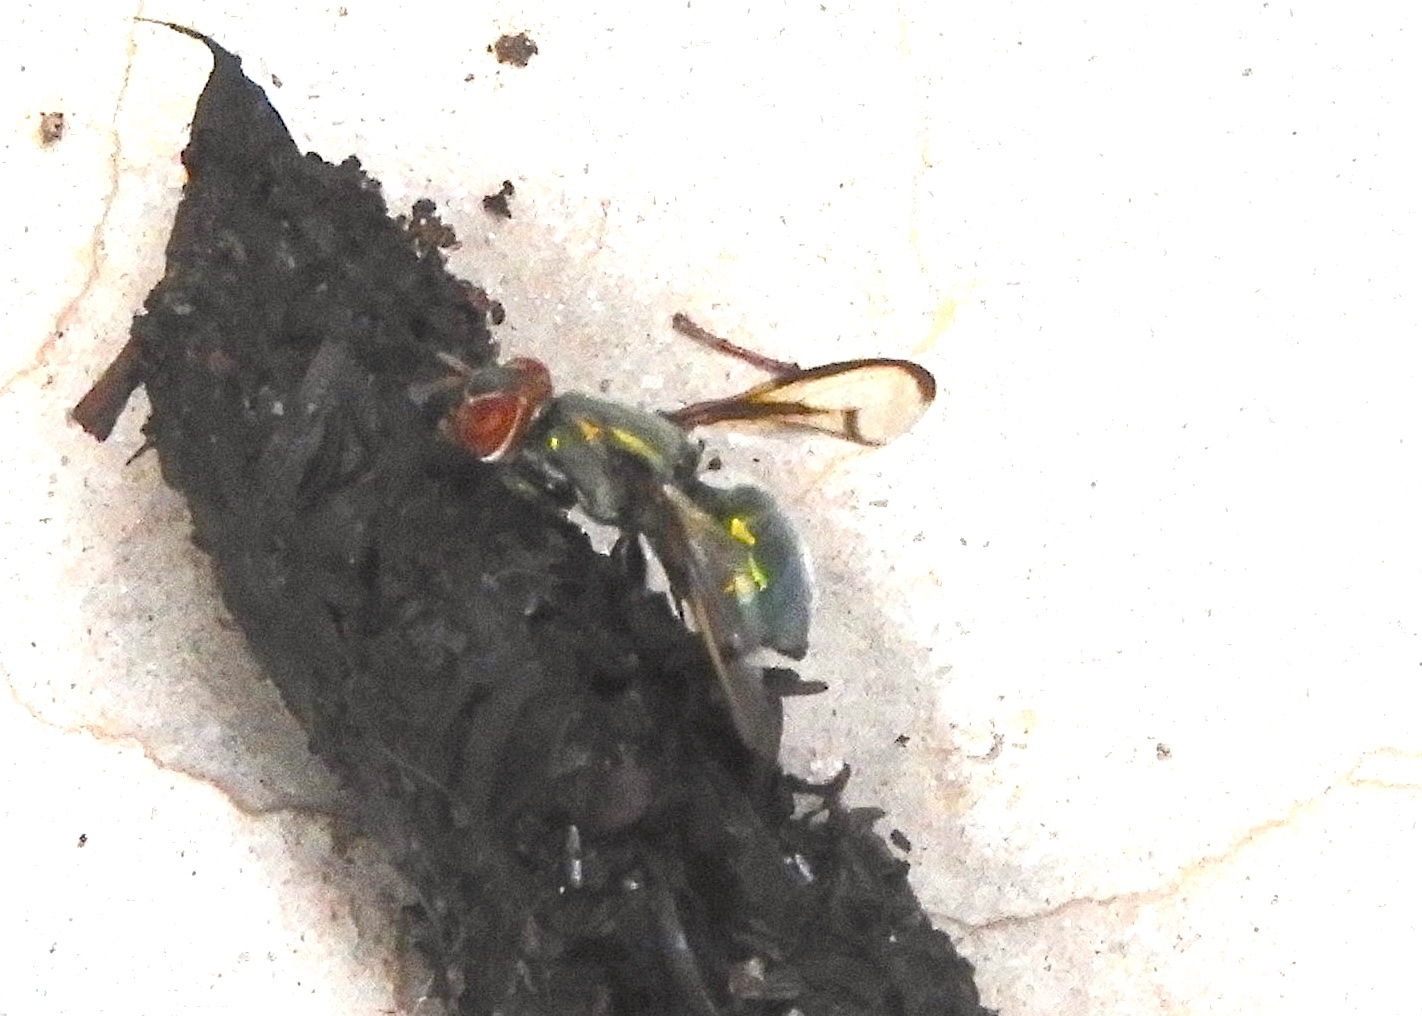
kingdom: Animalia
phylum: Arthropoda
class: Insecta
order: Diptera
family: Platystomatidae
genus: Senopterina
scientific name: Senopterina
